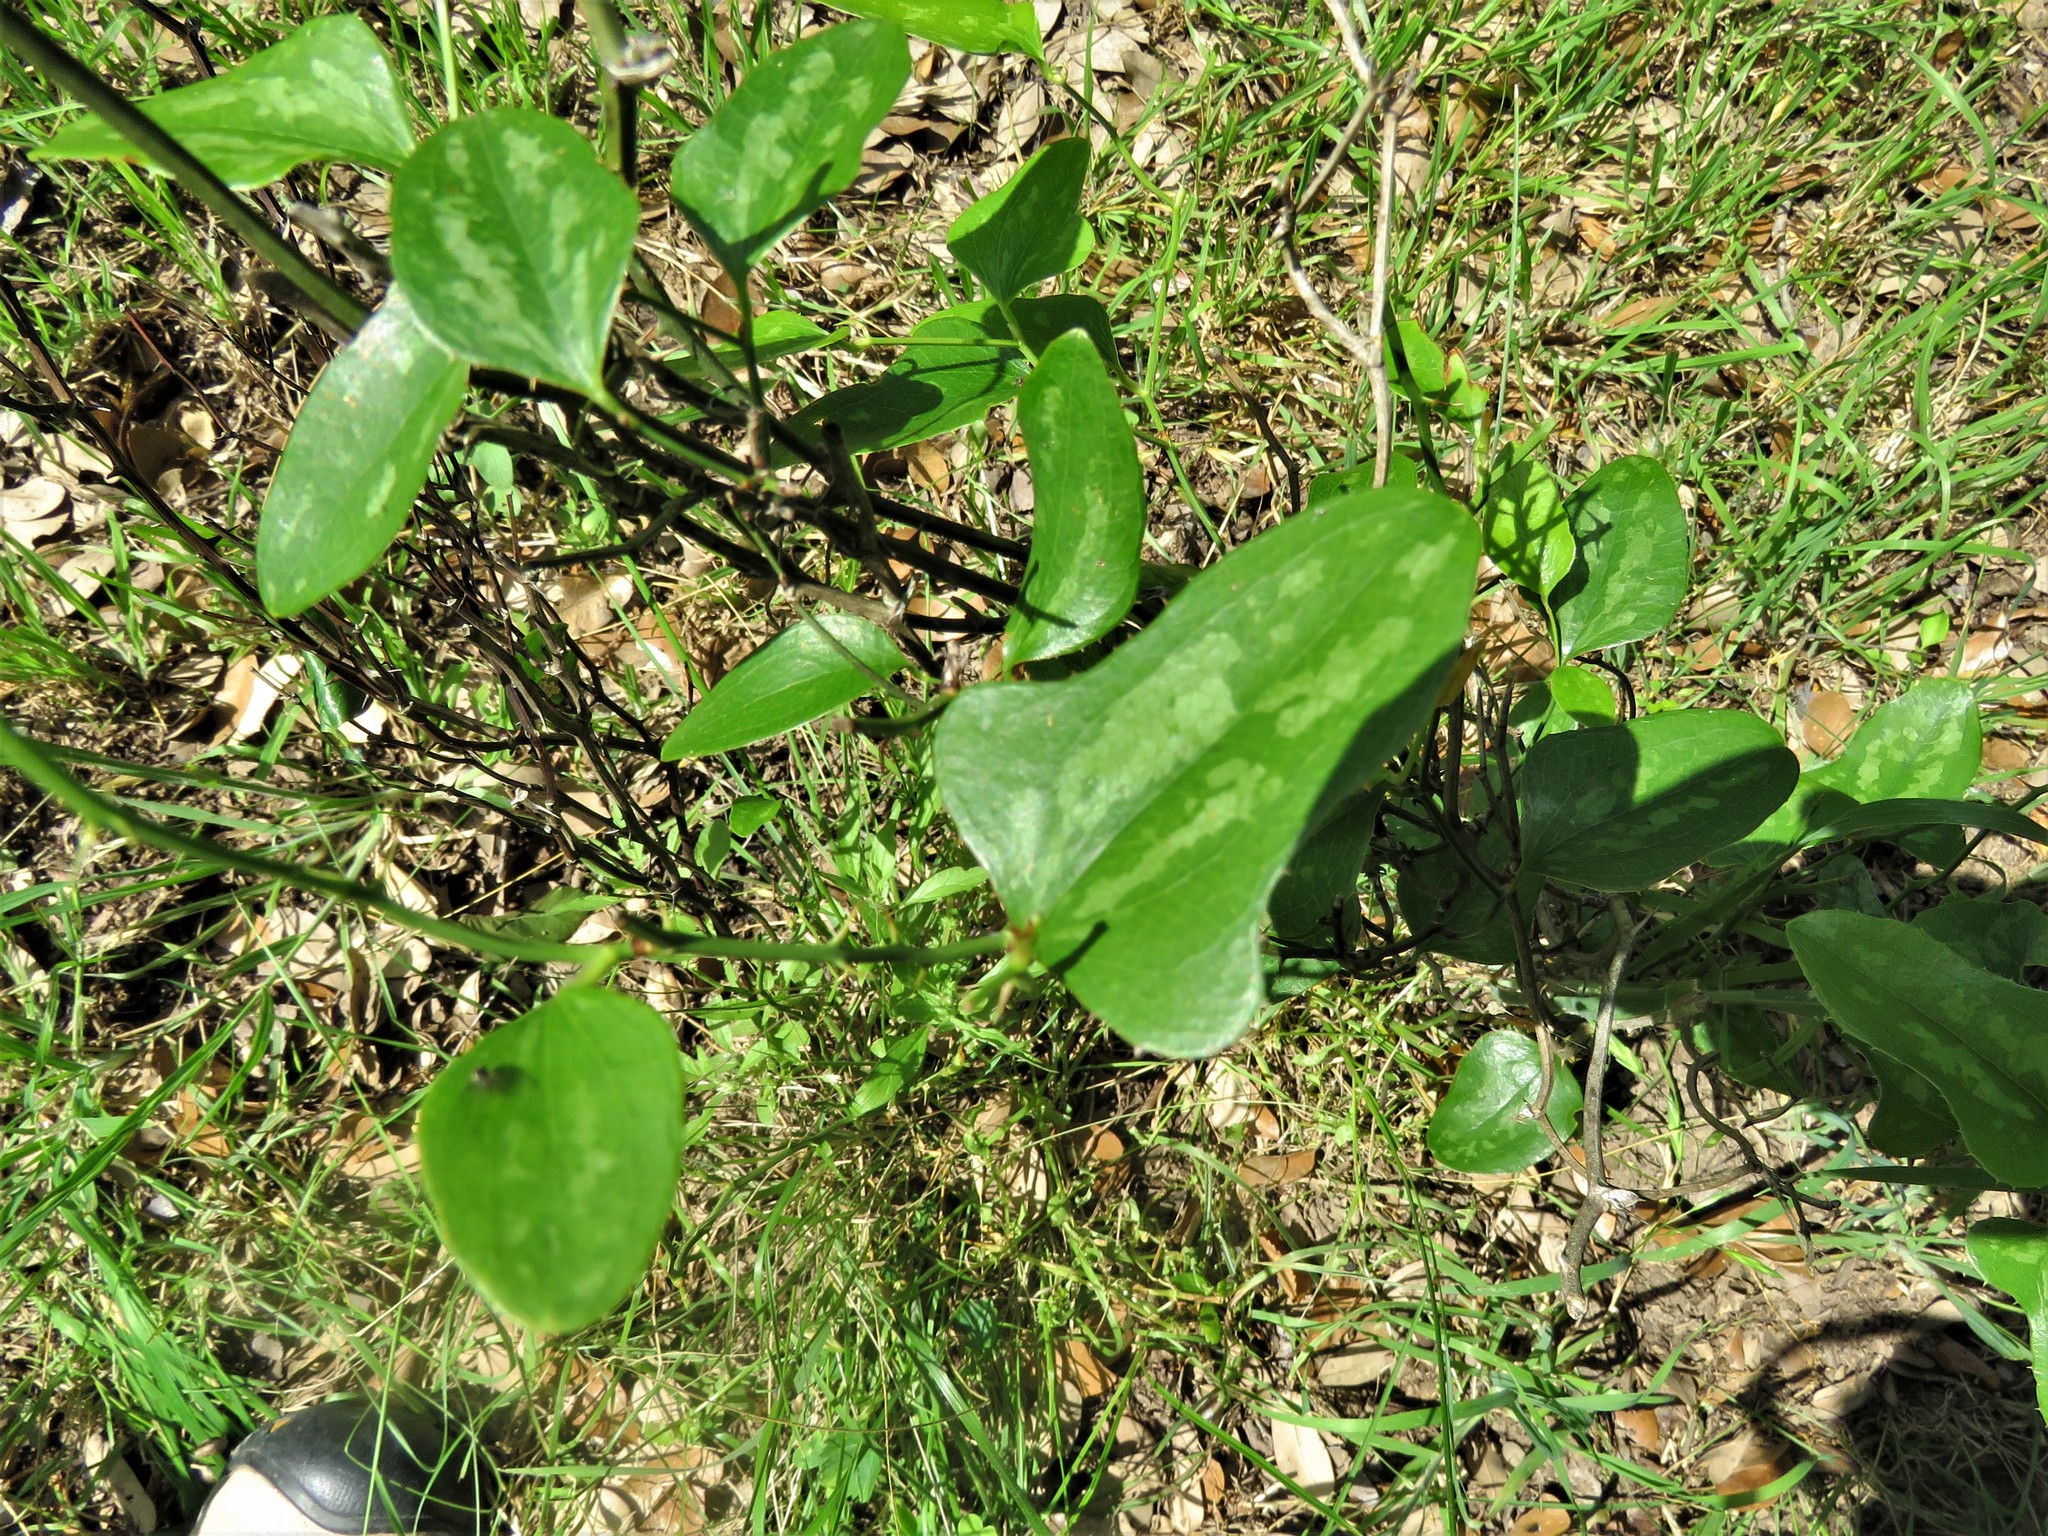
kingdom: Plantae
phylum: Tracheophyta
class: Liliopsida
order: Liliales
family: Smilacaceae
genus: Smilax
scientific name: Smilax bona-nox
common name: Catbrier
